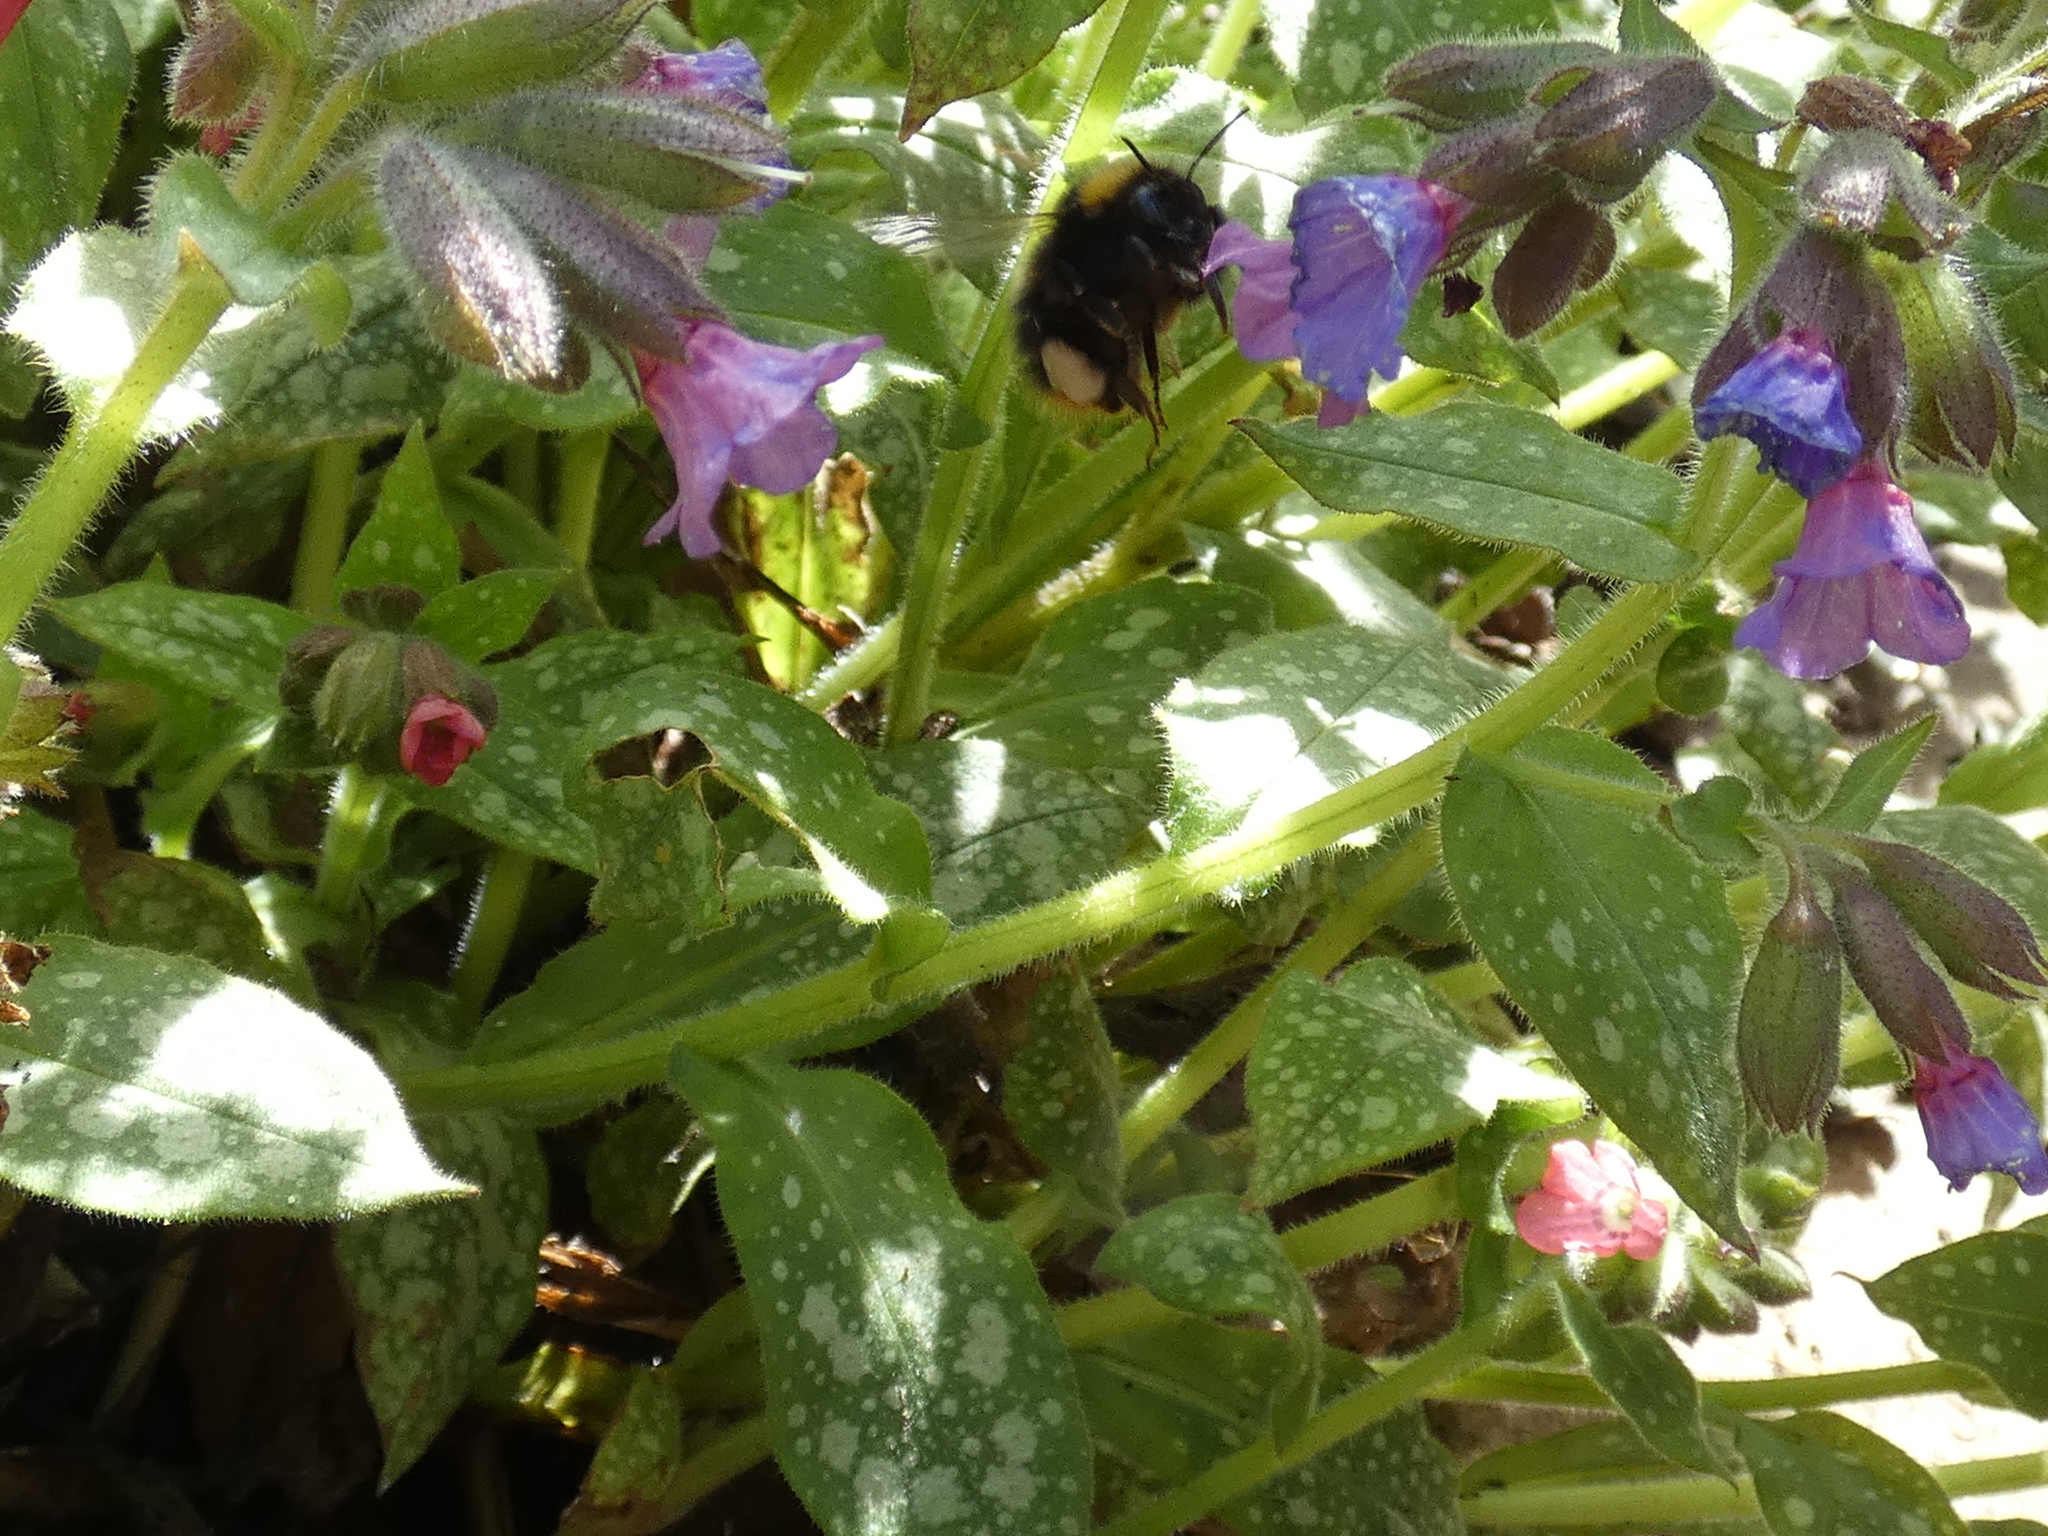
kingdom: Animalia
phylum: Arthropoda
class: Insecta
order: Hymenoptera
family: Apidae
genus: Bombus
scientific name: Bombus pratorum
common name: Early humble-bee
